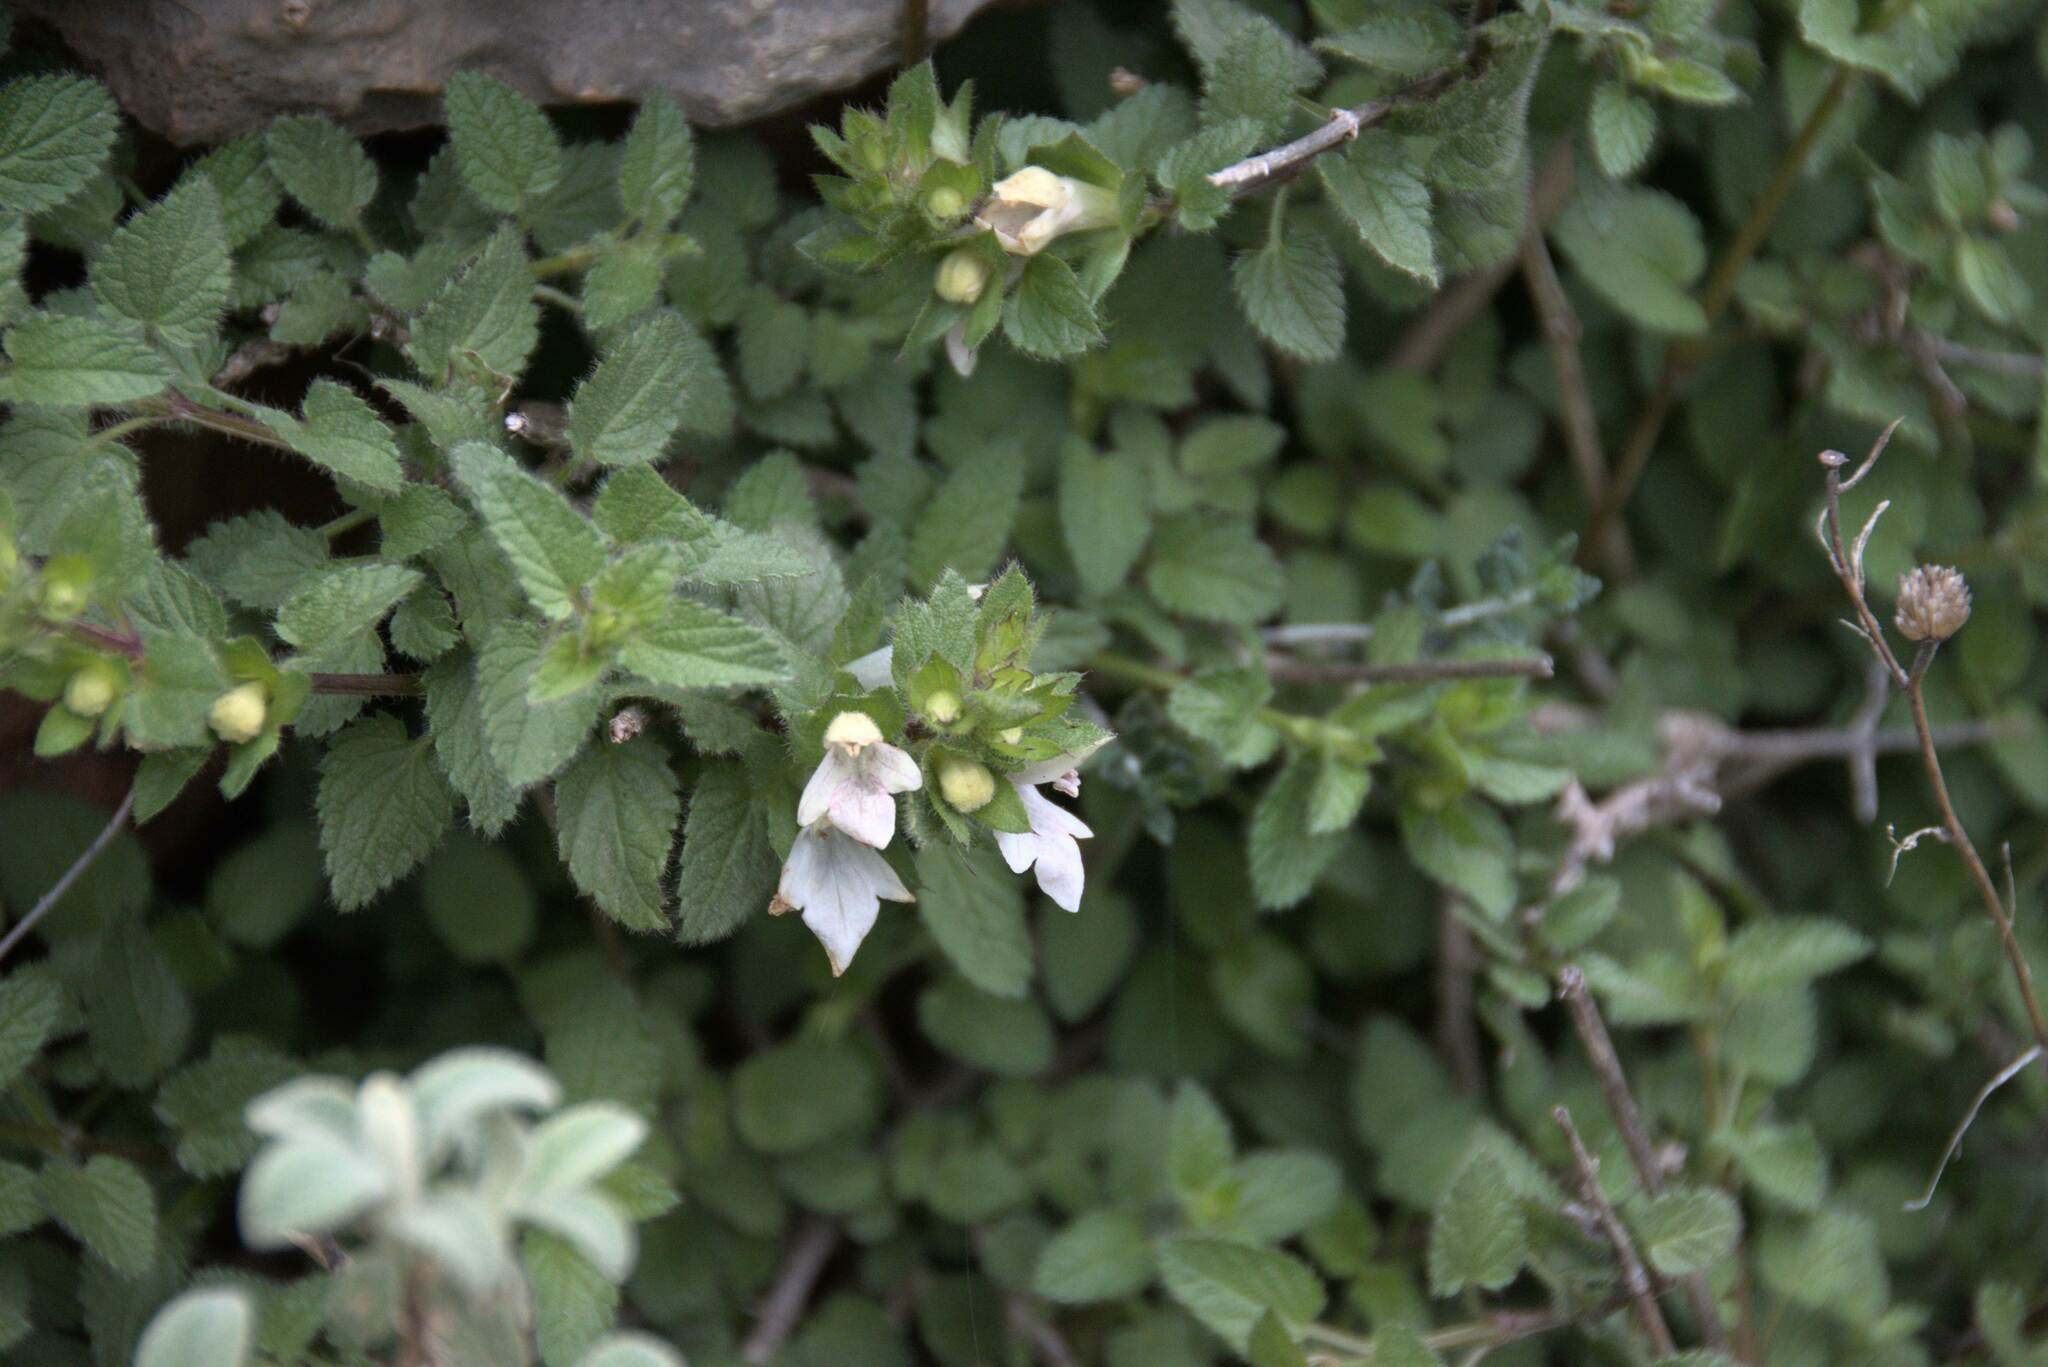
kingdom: Plantae
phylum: Tracheophyta
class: Magnoliopsida
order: Lamiales
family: Lamiaceae
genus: Prasium
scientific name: Prasium majus
